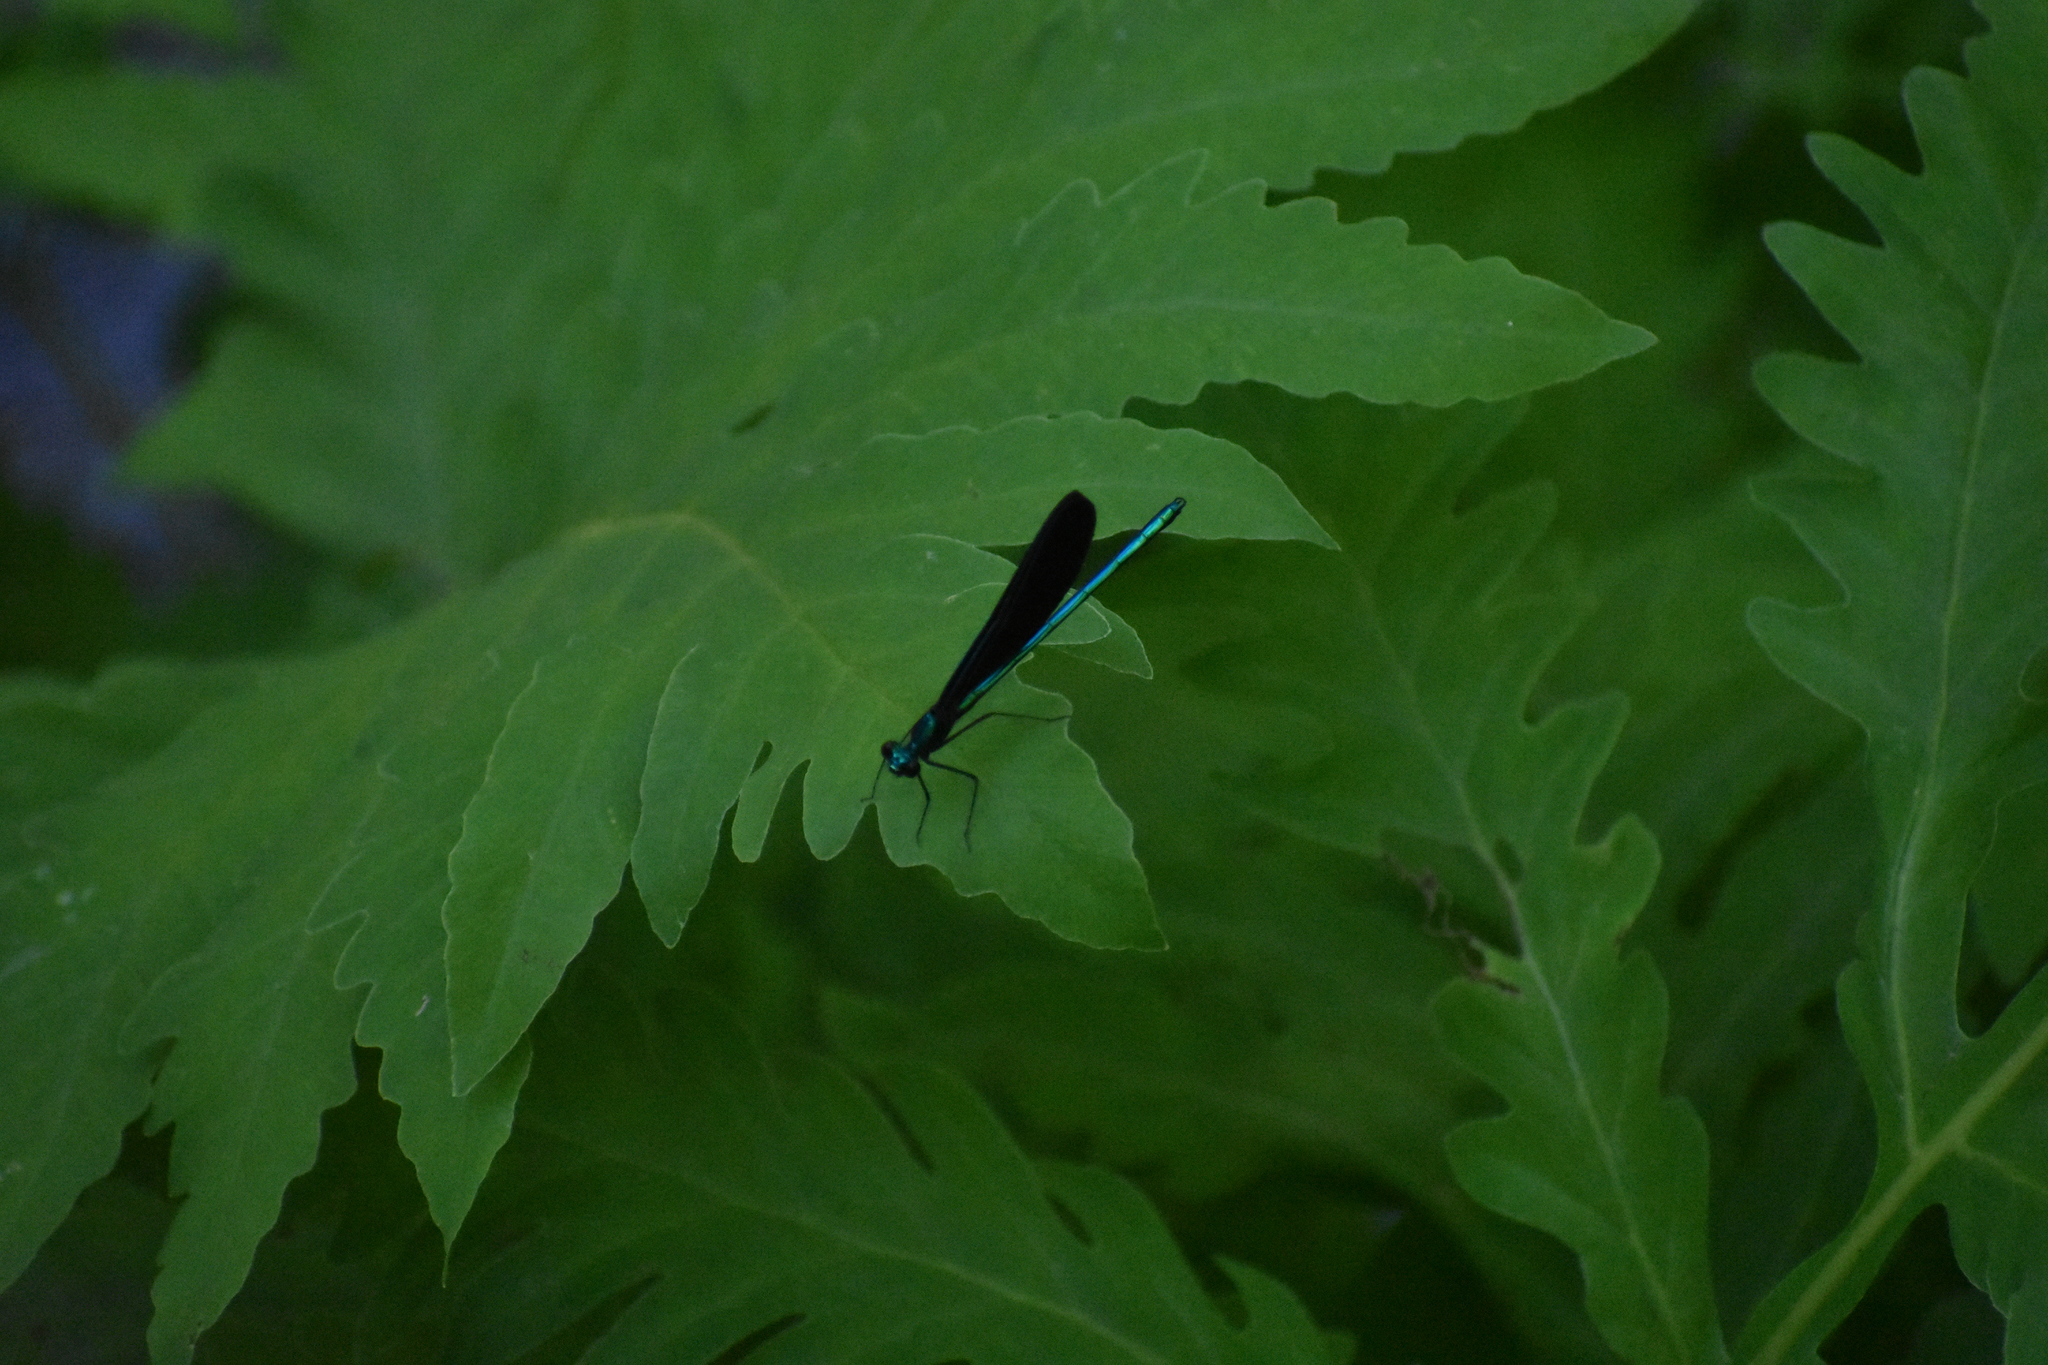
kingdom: Animalia
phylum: Arthropoda
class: Insecta
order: Odonata
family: Calopterygidae
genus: Calopteryx
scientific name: Calopteryx maculata
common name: Ebony jewelwing
